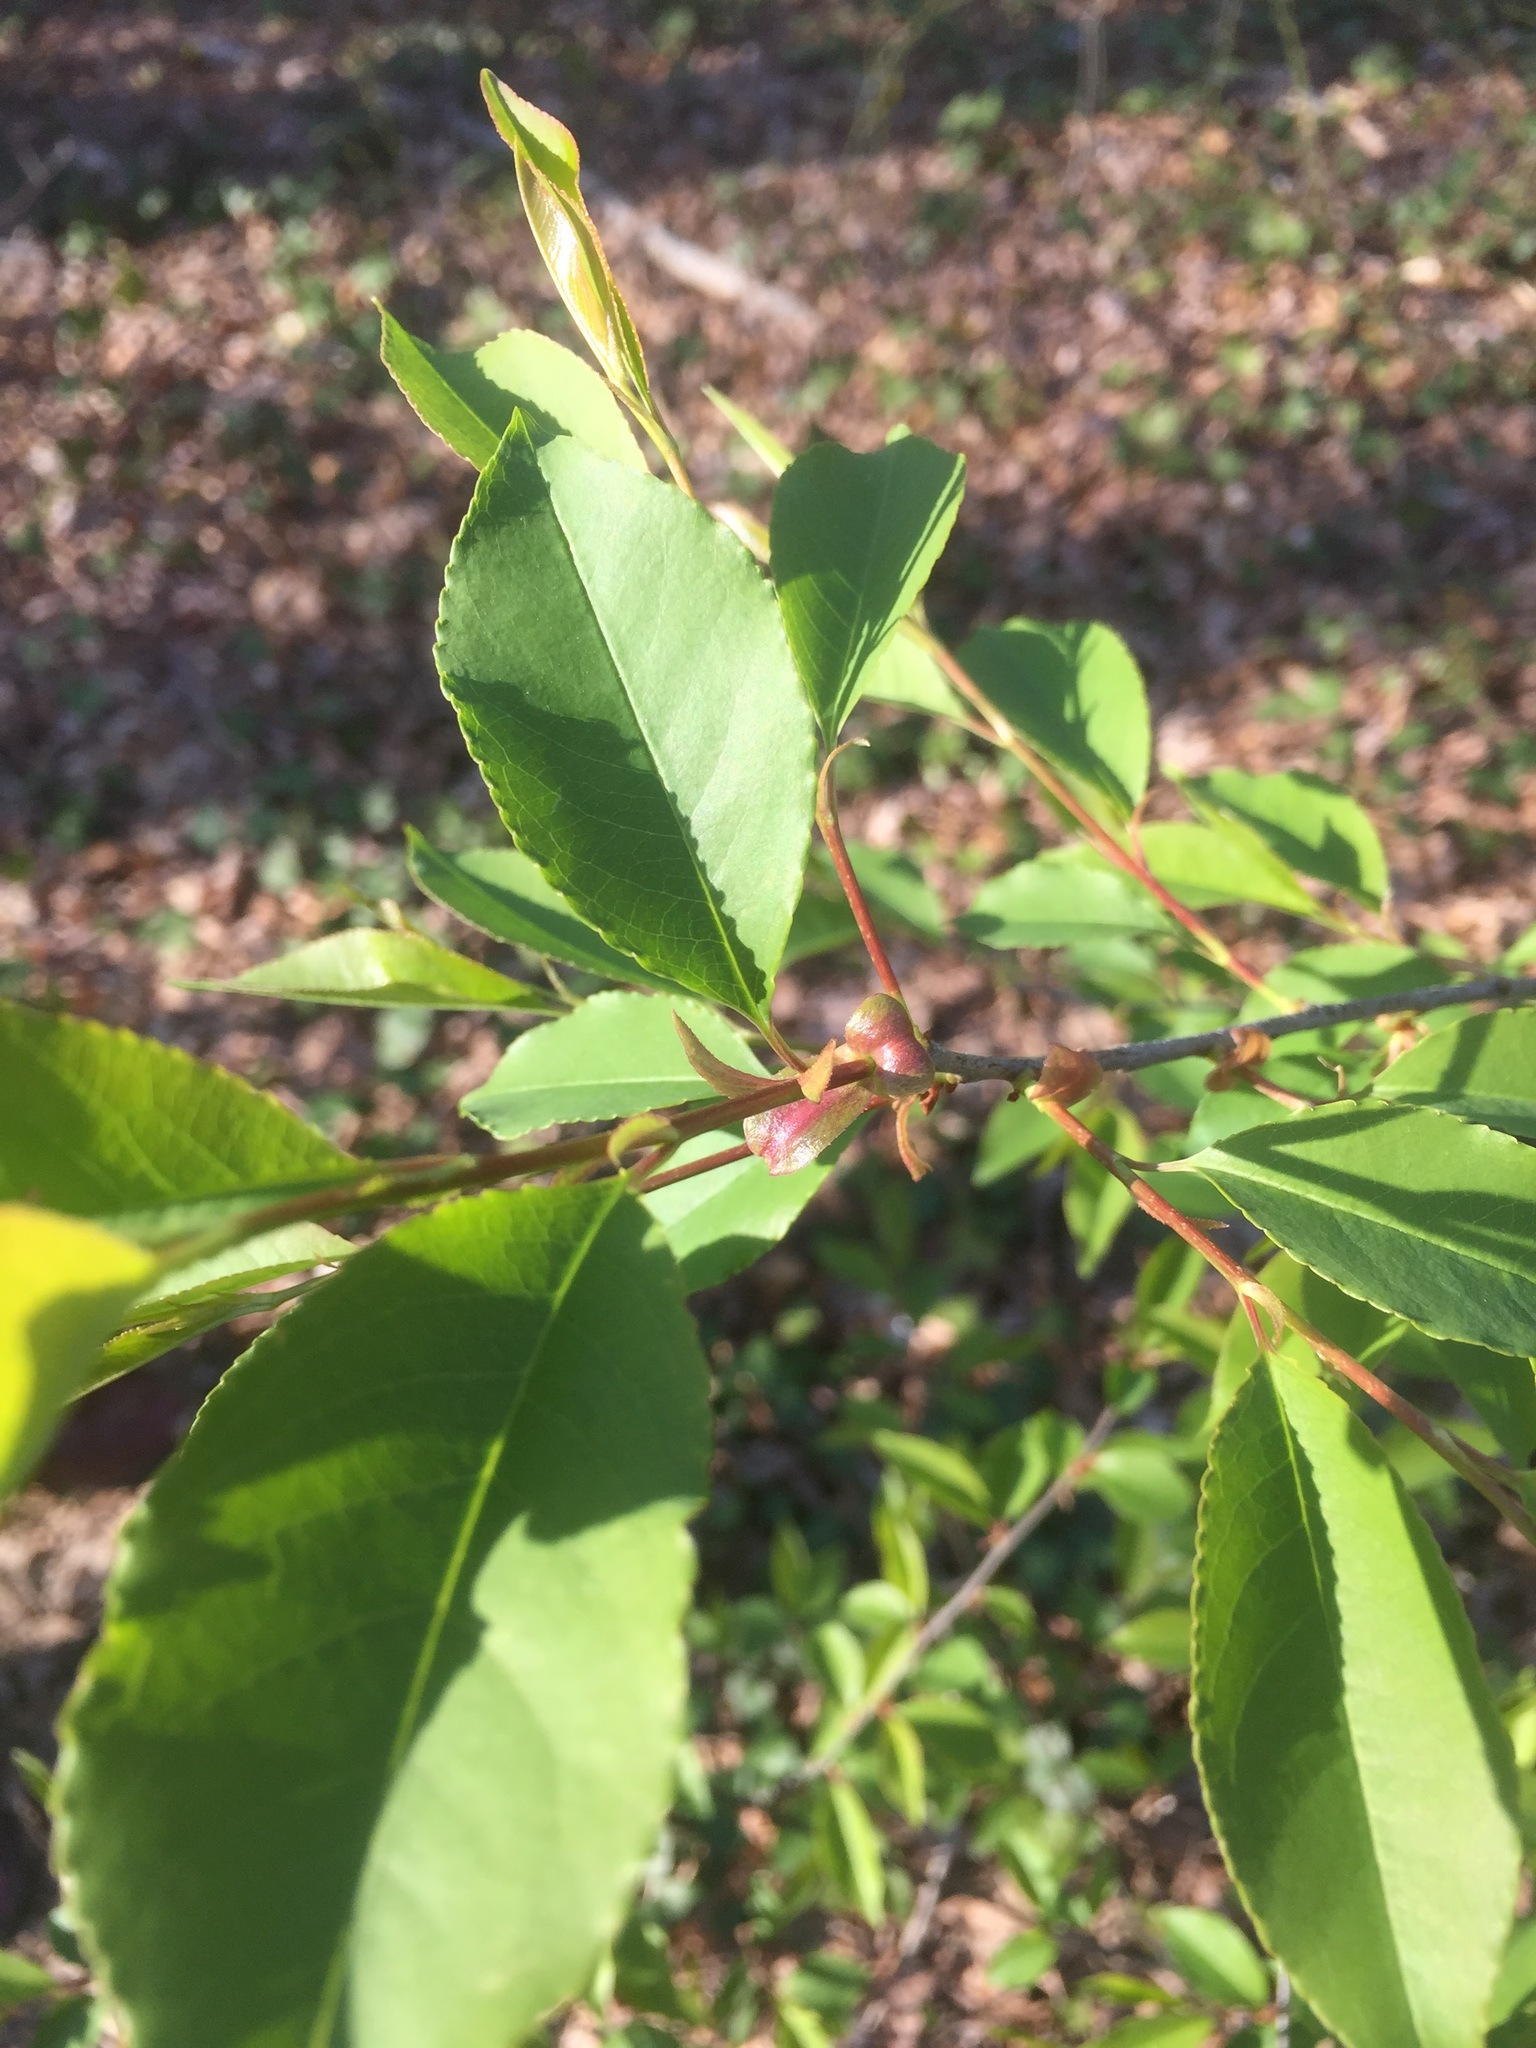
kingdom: Plantae
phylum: Tracheophyta
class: Magnoliopsida
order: Rosales
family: Rosaceae
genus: Prunus
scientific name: Prunus serotina
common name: Black cherry
